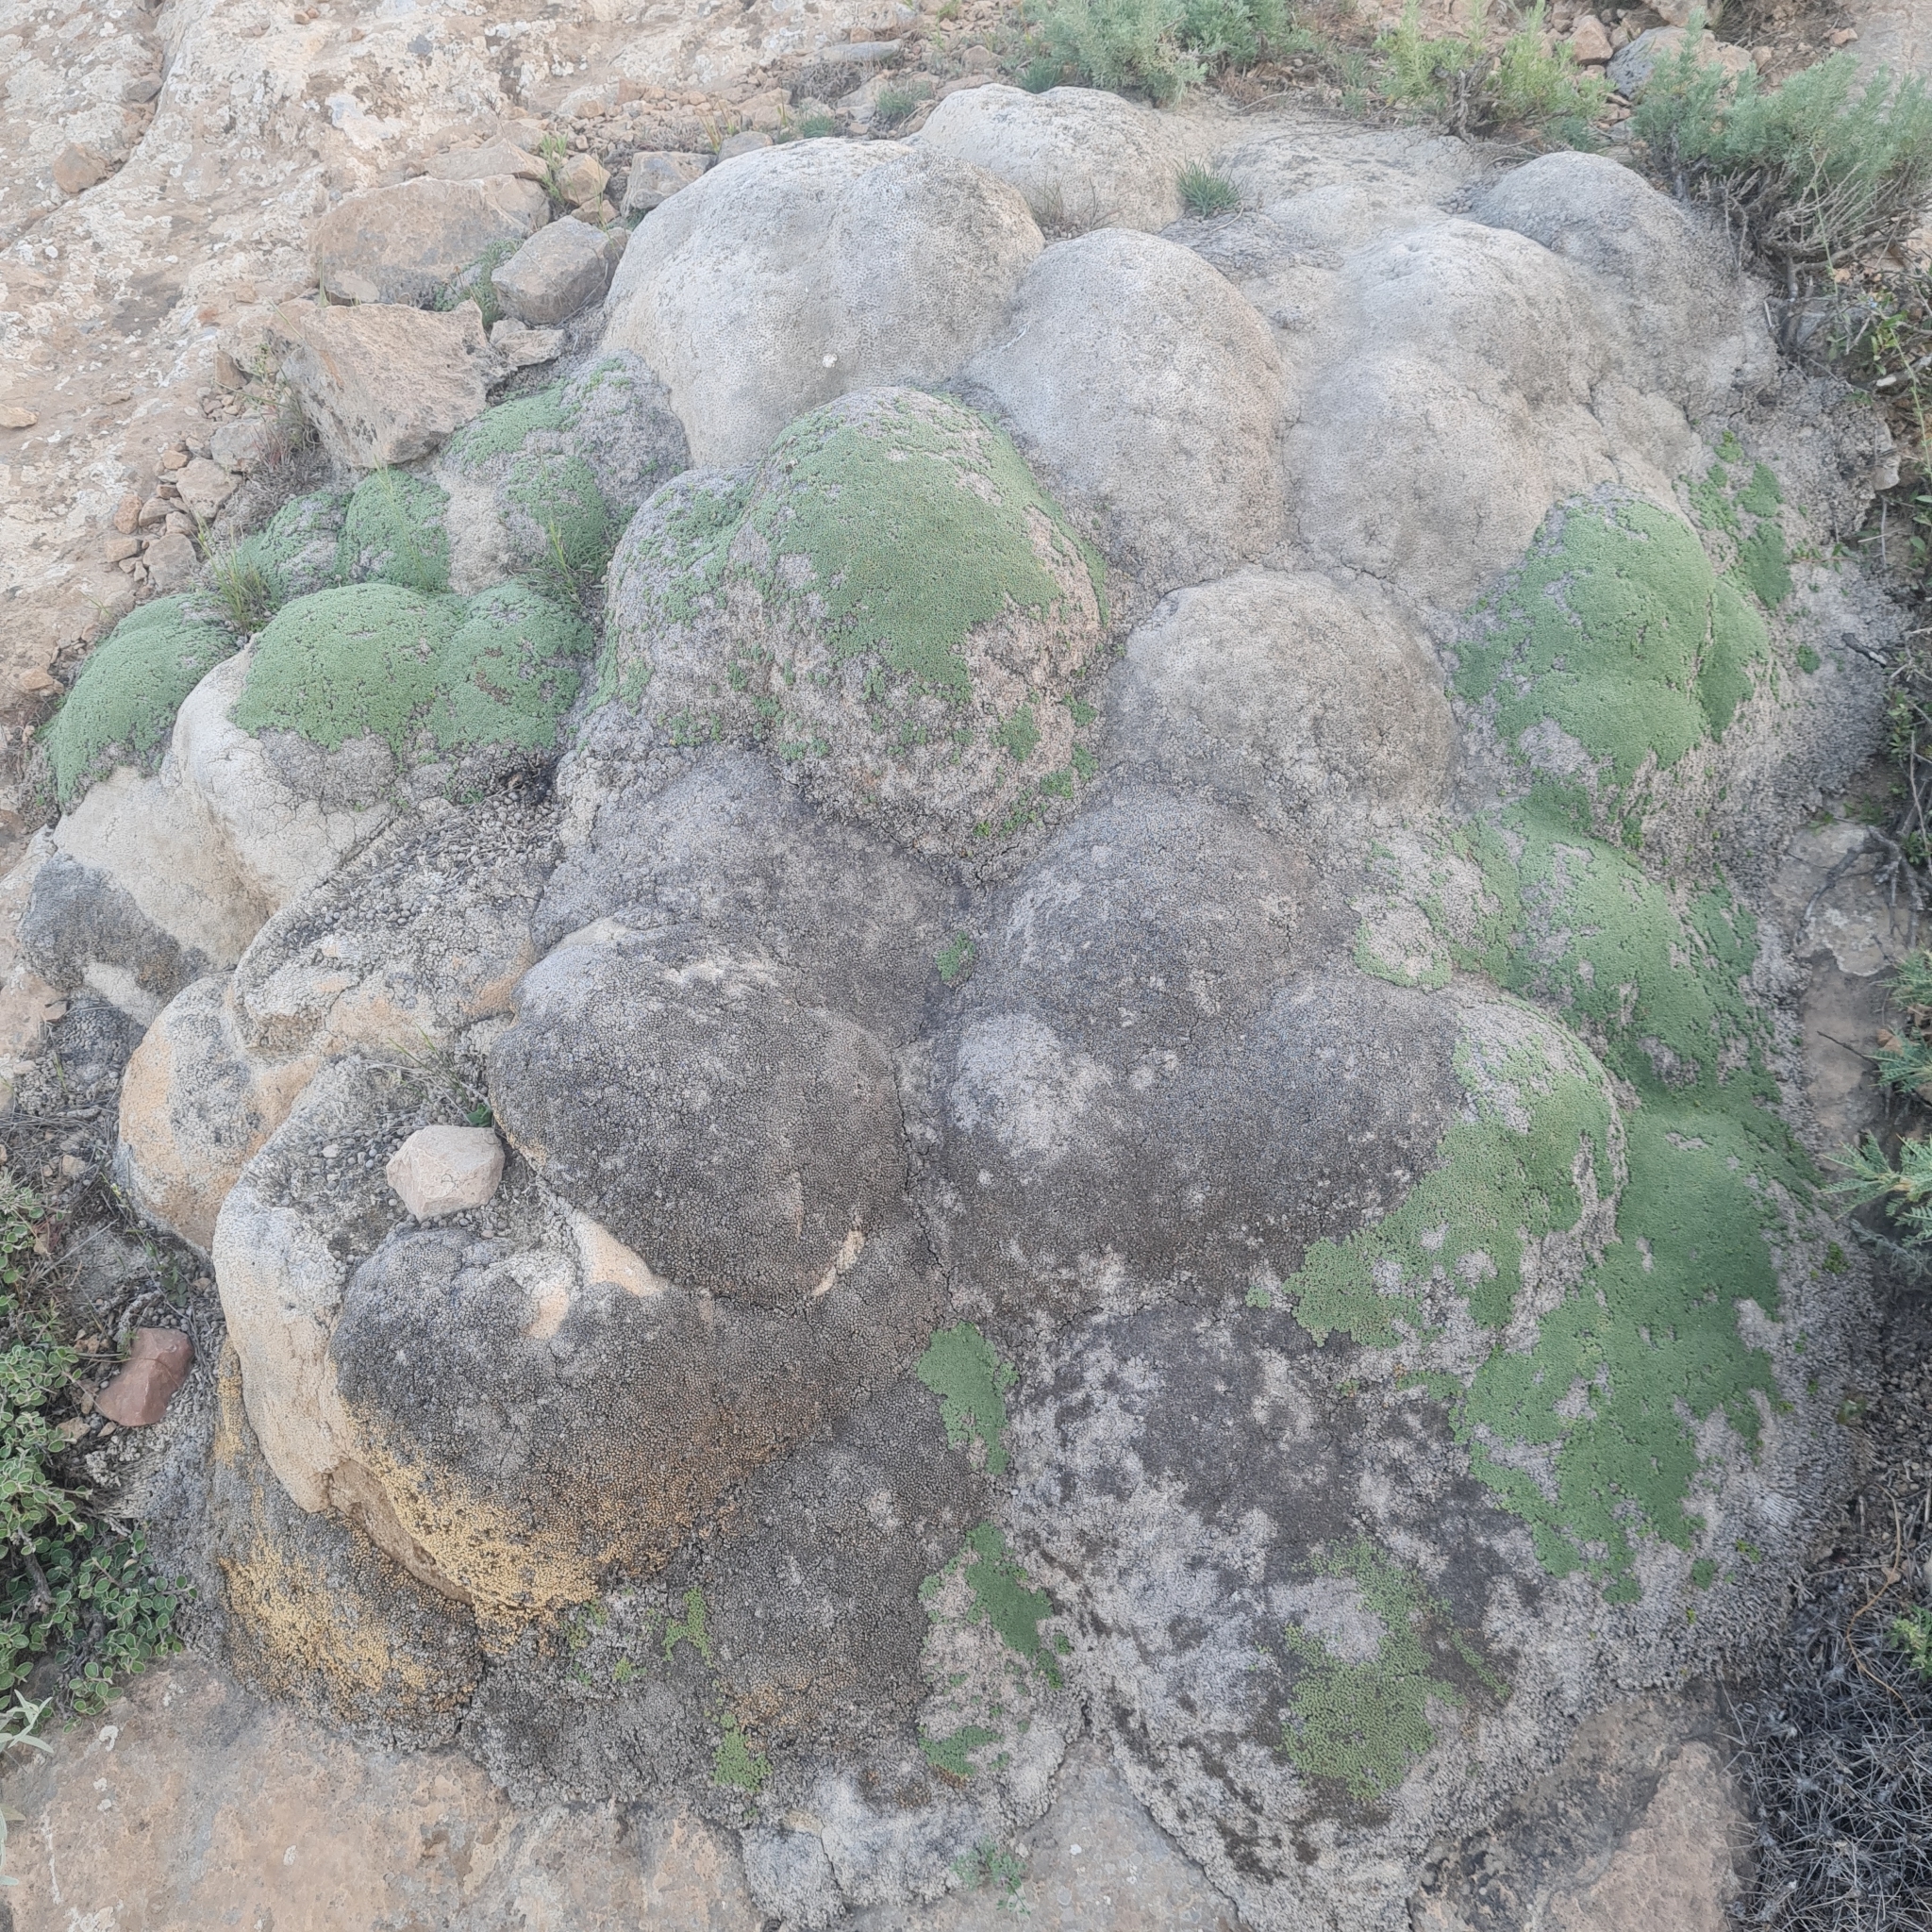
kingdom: Plantae
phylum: Tracheophyta
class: Magnoliopsida
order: Caryophyllales
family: Caryophyllaceae
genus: Gypsophila
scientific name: Gypsophila aretioides
